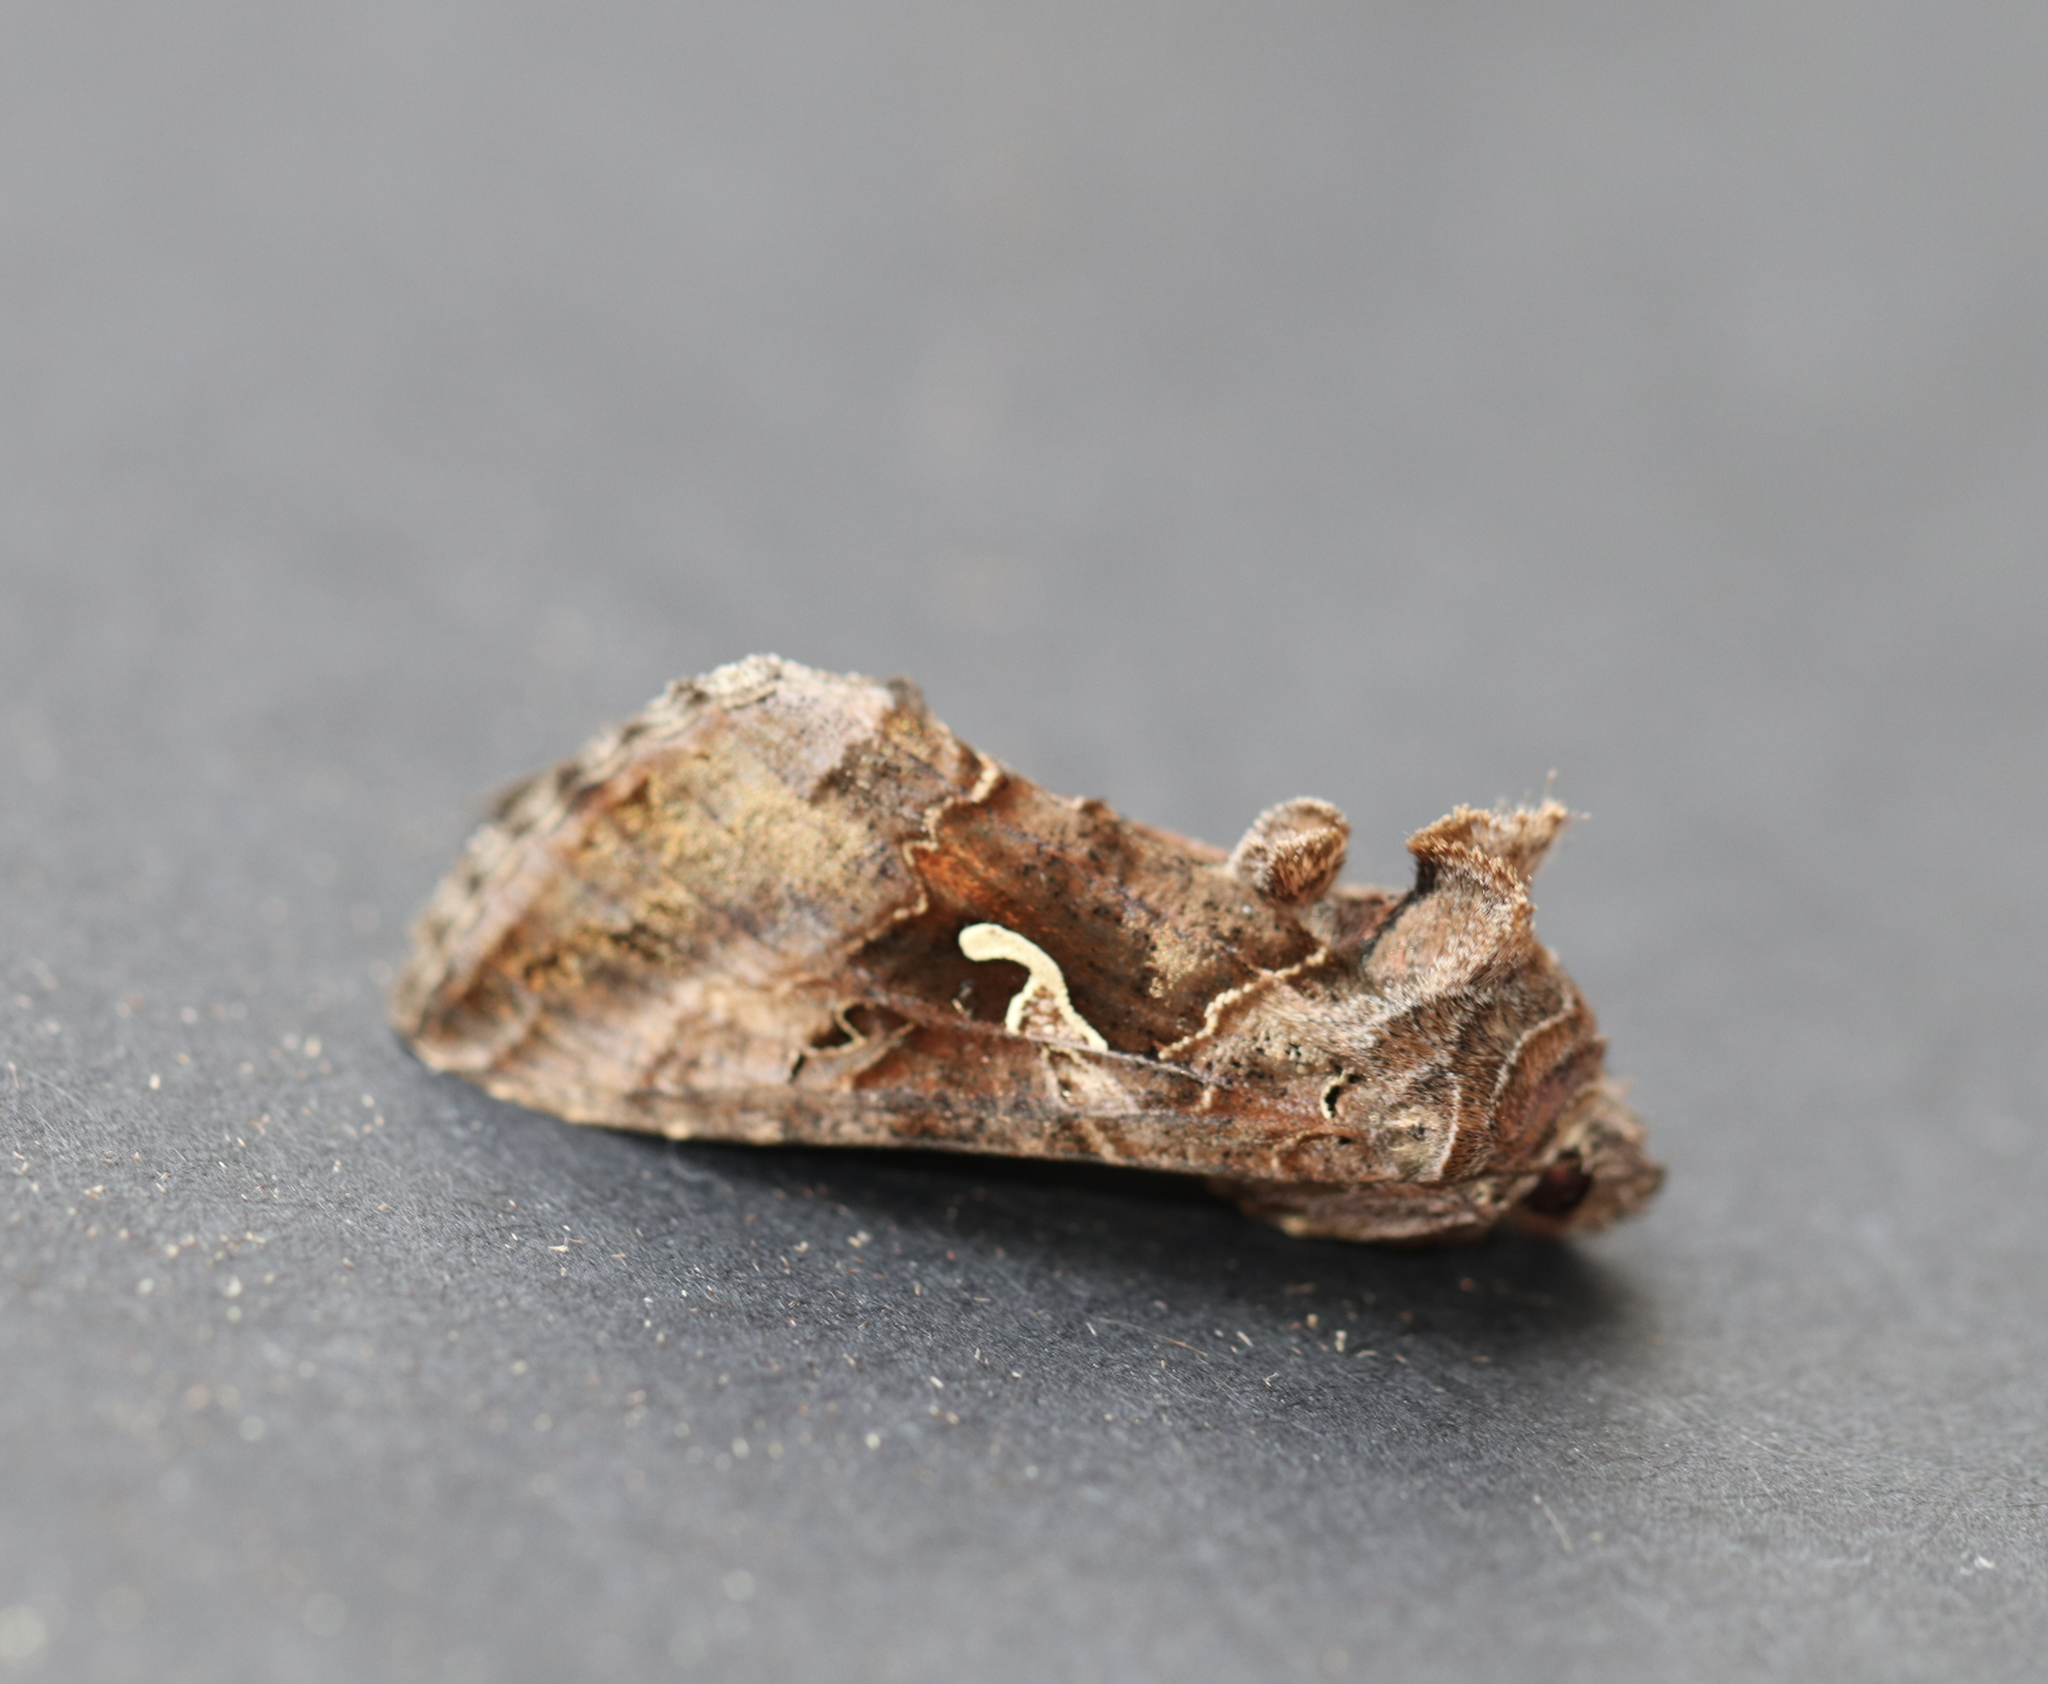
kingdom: Animalia
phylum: Arthropoda
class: Insecta
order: Lepidoptera
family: Noctuidae
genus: Autographa
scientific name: Autographa gamma
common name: Silver y
